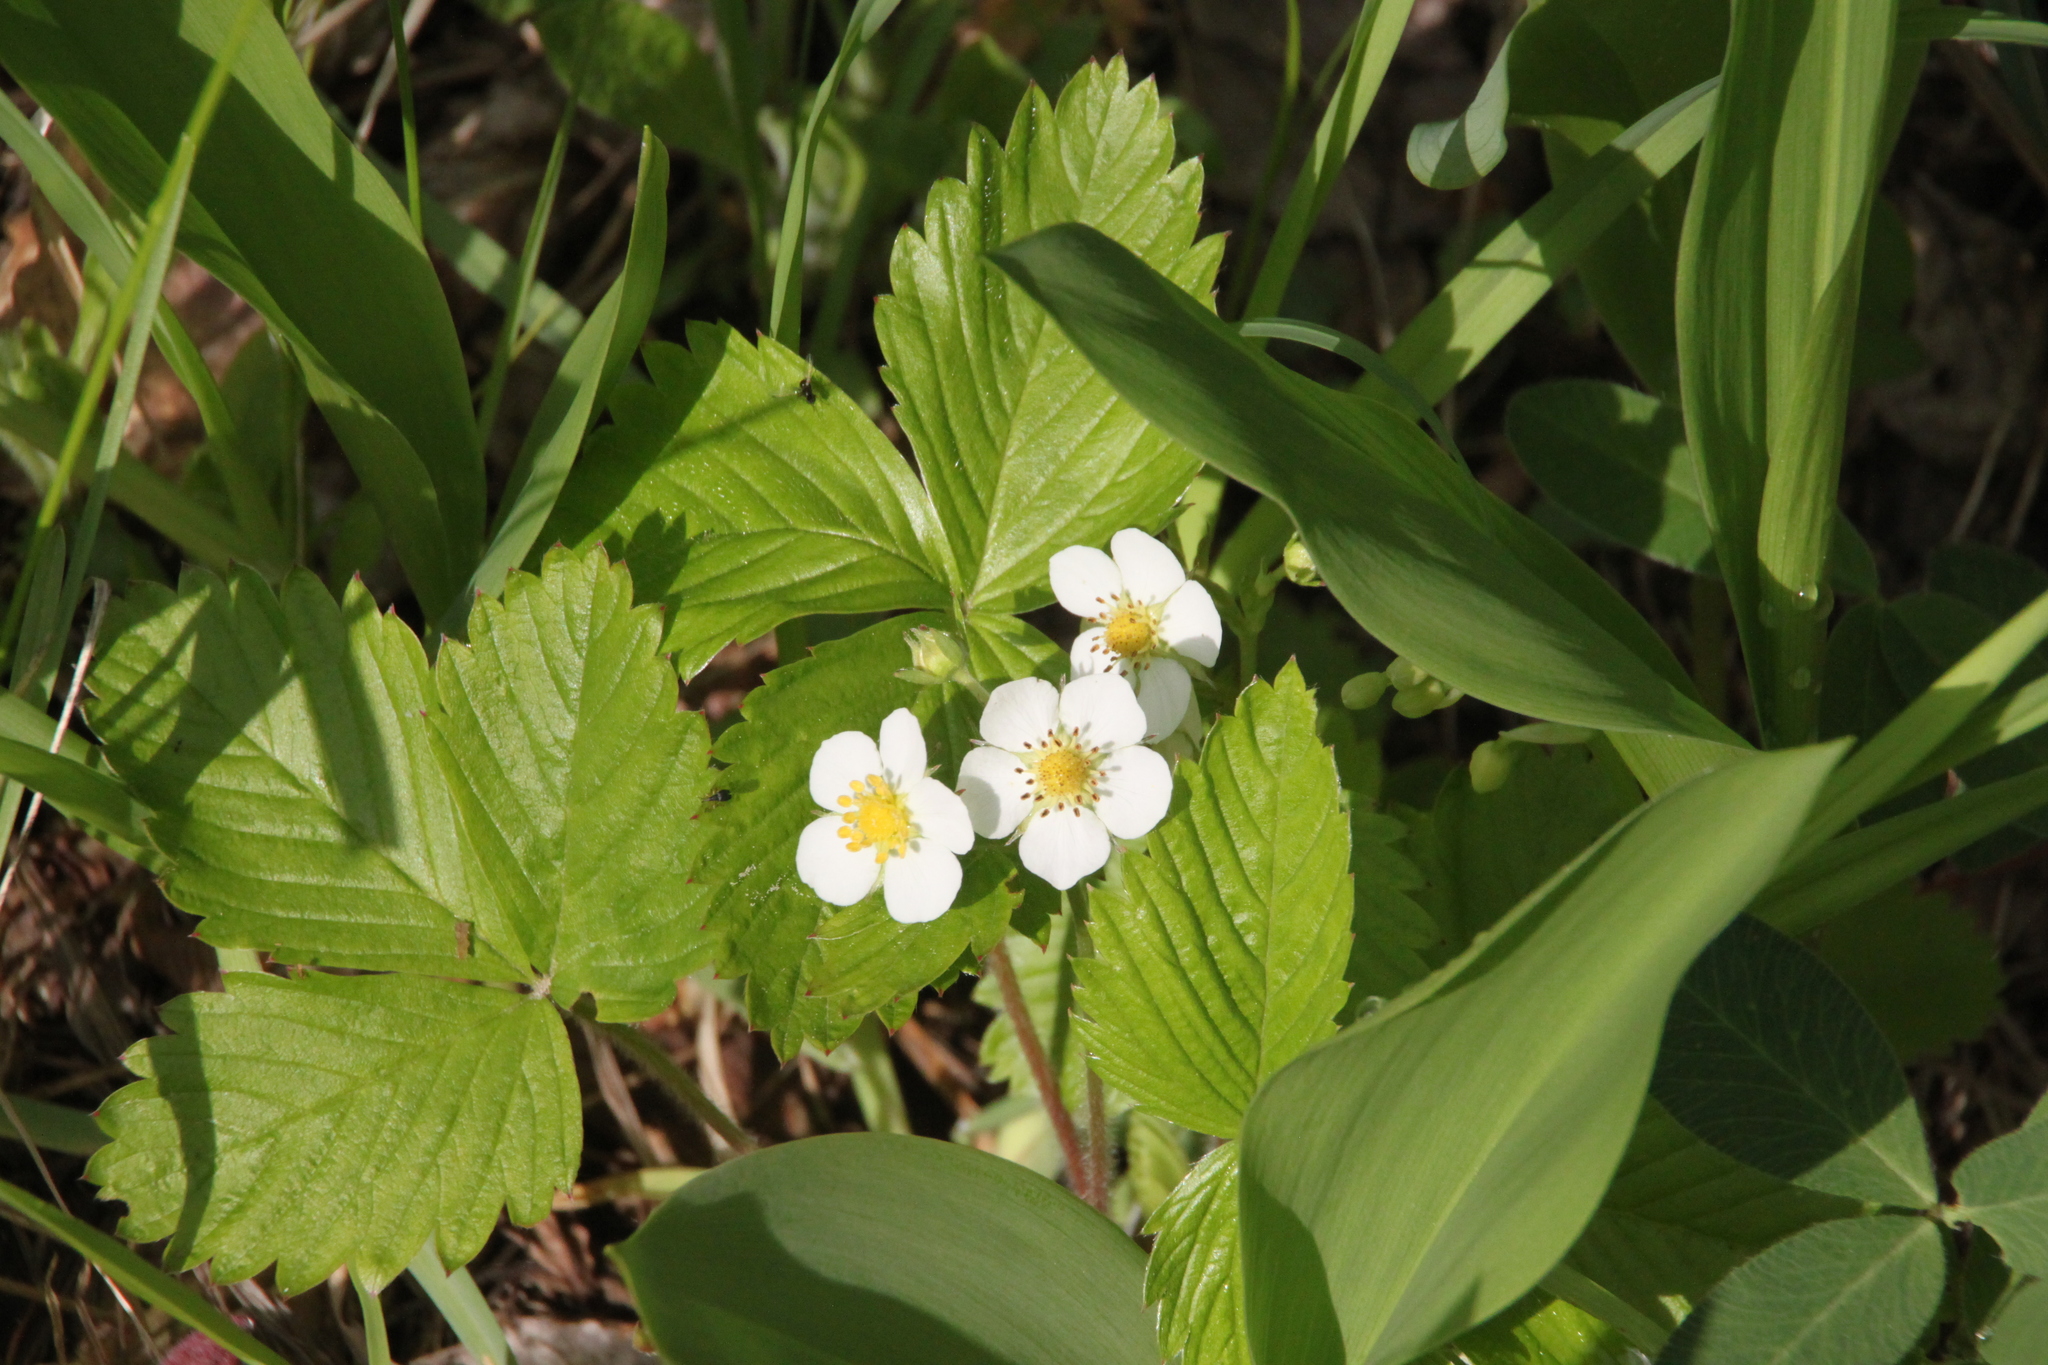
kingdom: Plantae
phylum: Tracheophyta
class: Magnoliopsida
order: Rosales
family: Rosaceae
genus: Fragaria
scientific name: Fragaria vesca
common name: Wild strawberry
